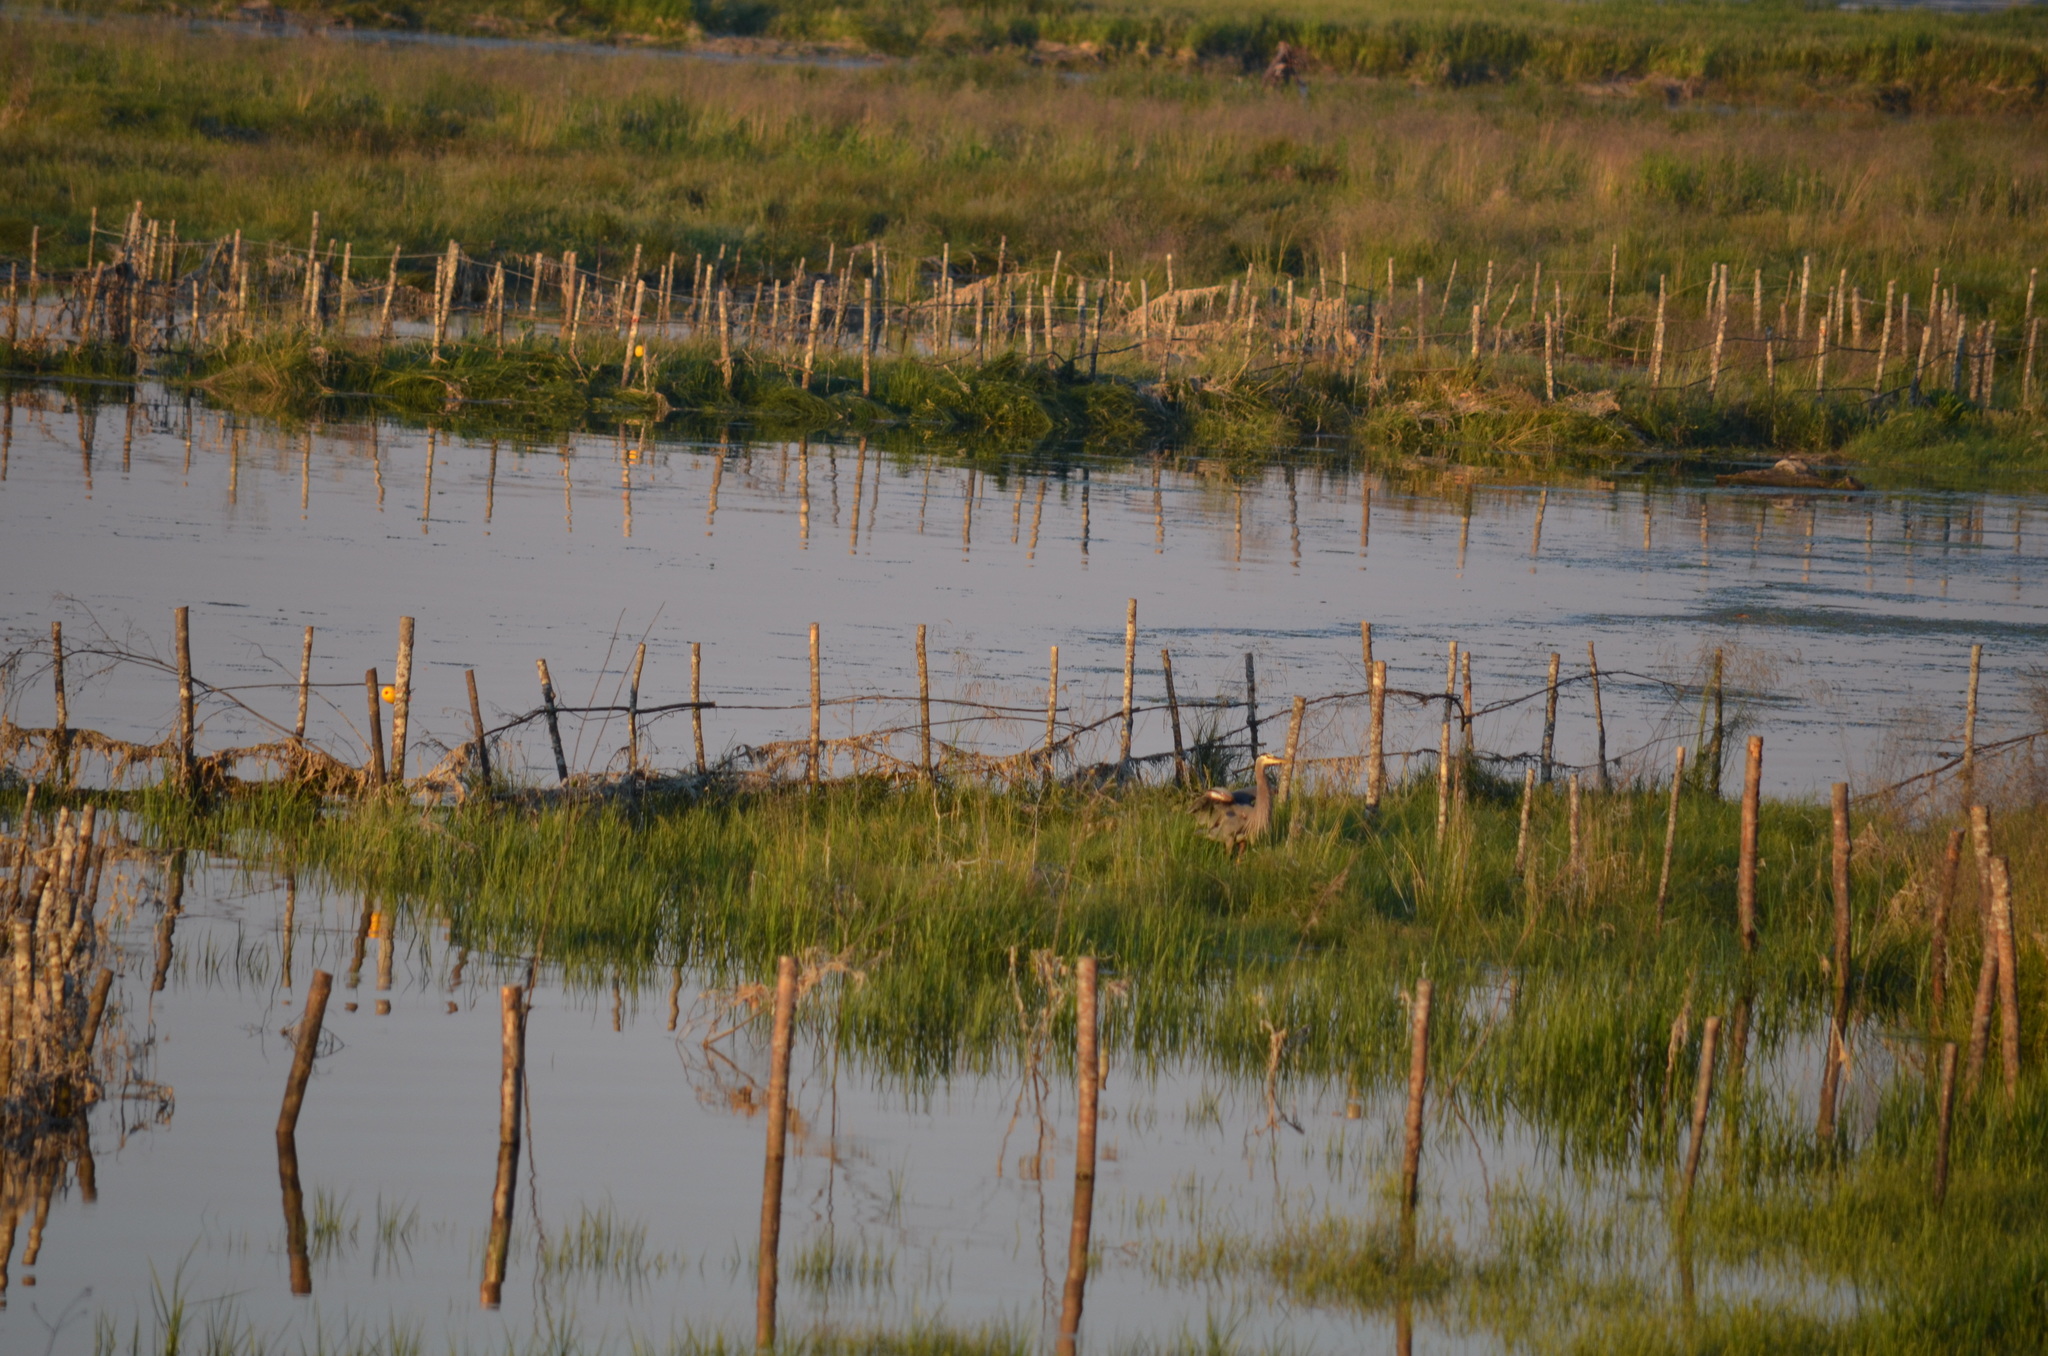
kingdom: Animalia
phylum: Chordata
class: Aves
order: Pelecaniformes
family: Ardeidae
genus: Ardea
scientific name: Ardea herodias
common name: Great blue heron
